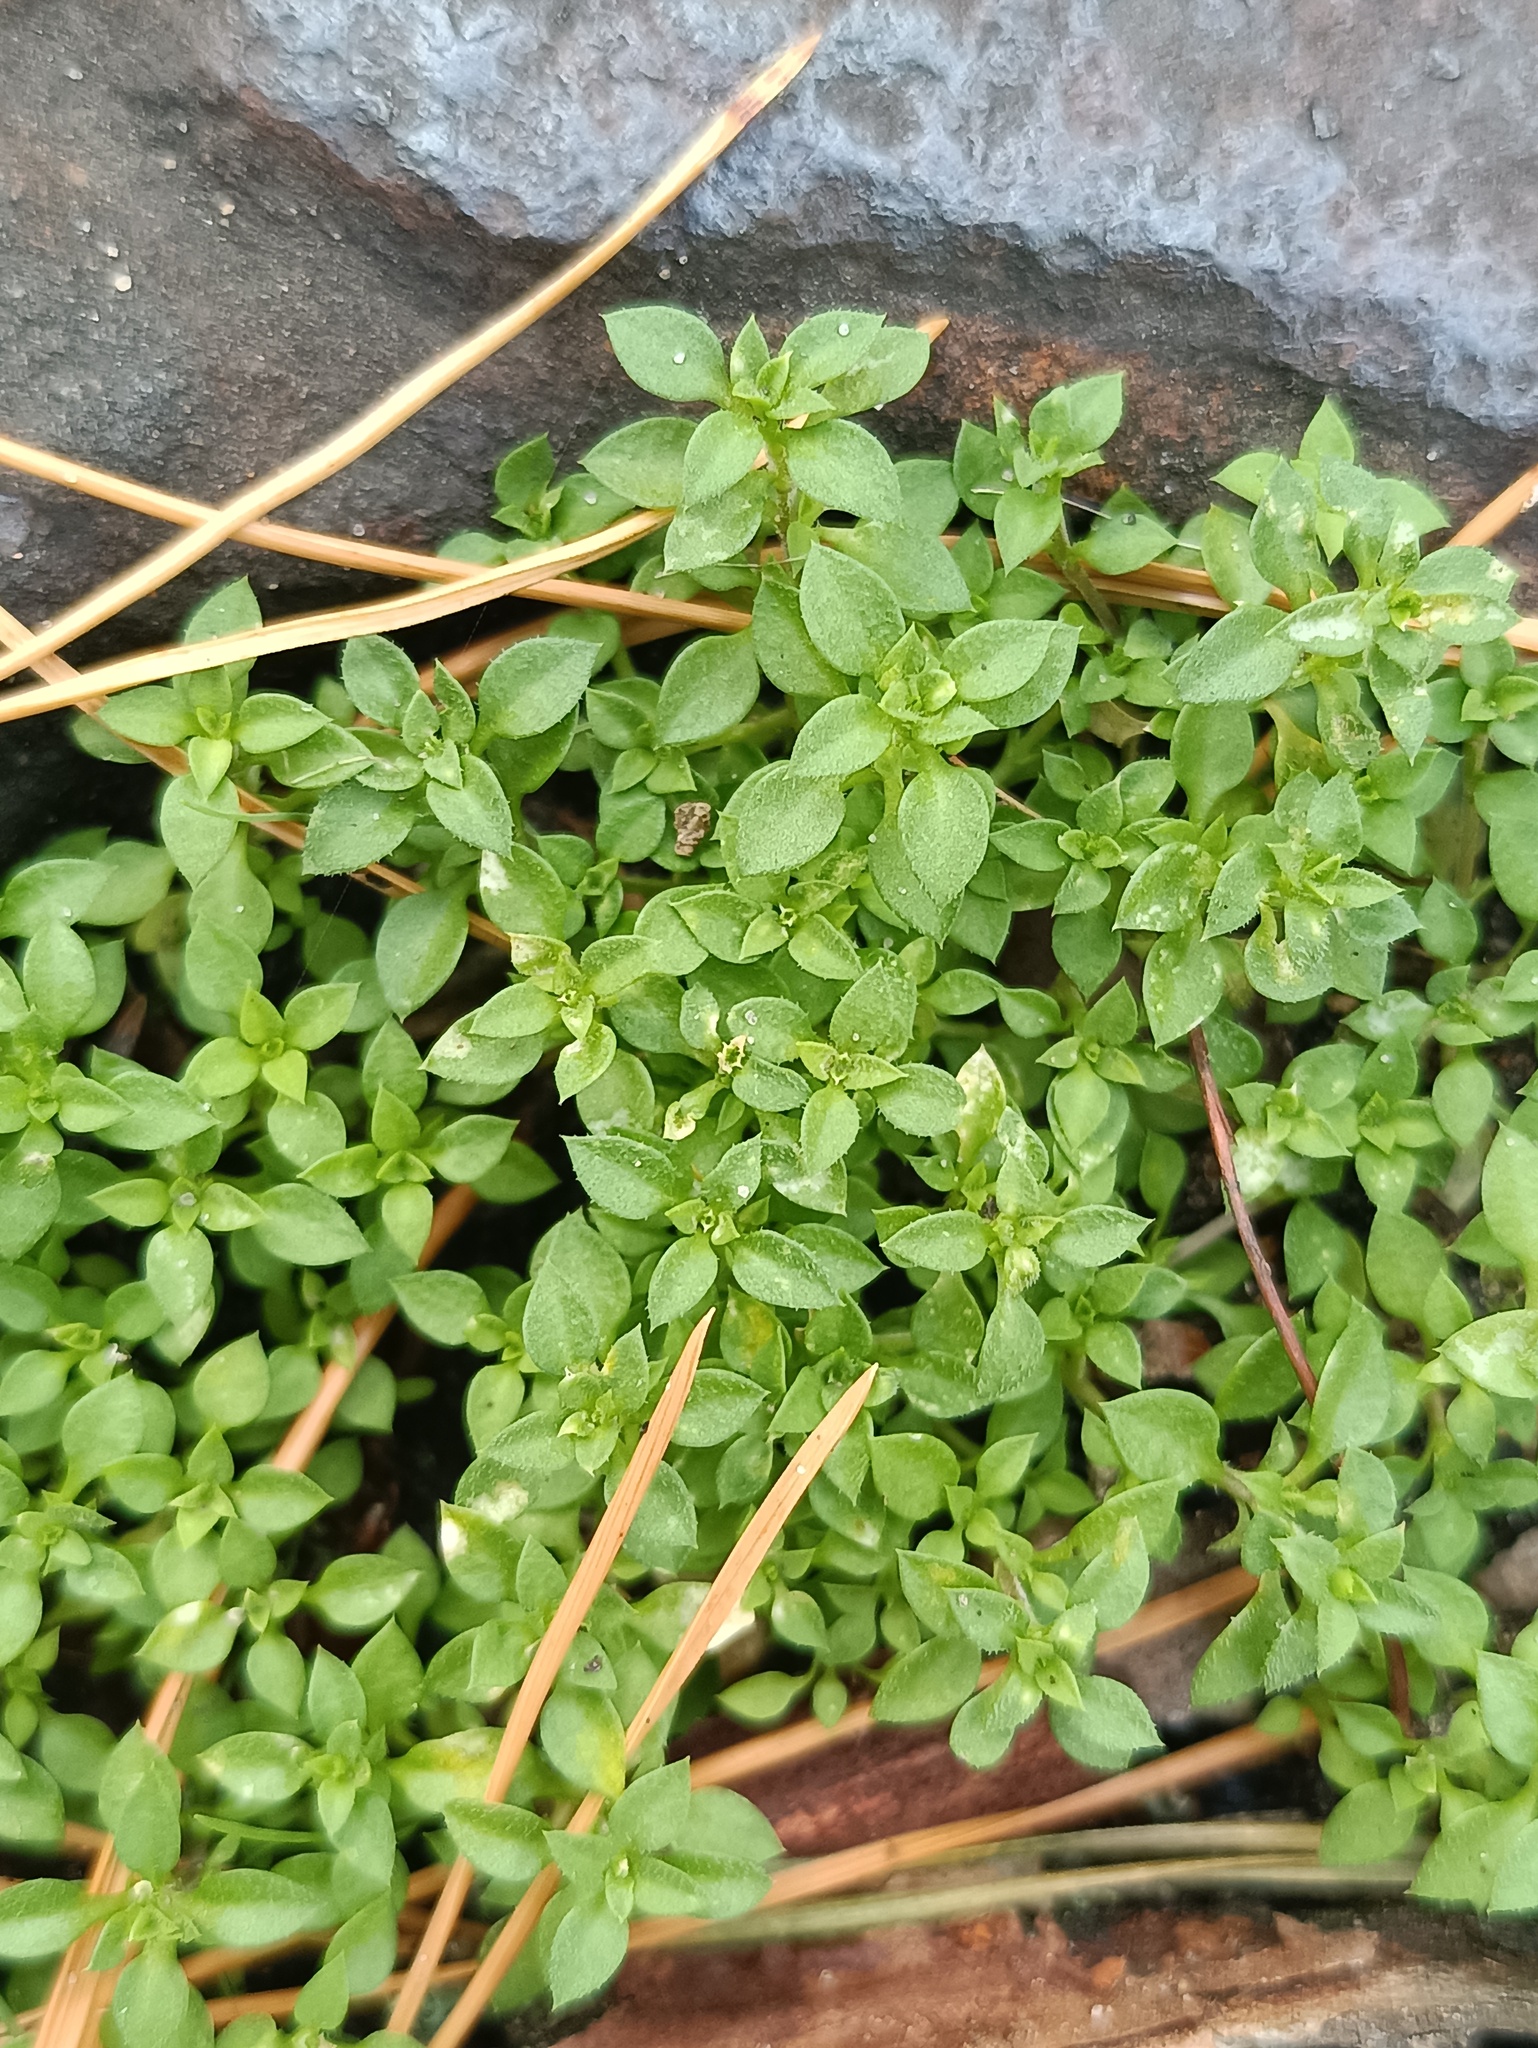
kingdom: Plantae
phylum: Tracheophyta
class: Magnoliopsida
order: Caryophyllales
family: Caryophyllaceae
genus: Arenaria
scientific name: Arenaria serpyllifolia
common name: Thyme-leaved sandwort
